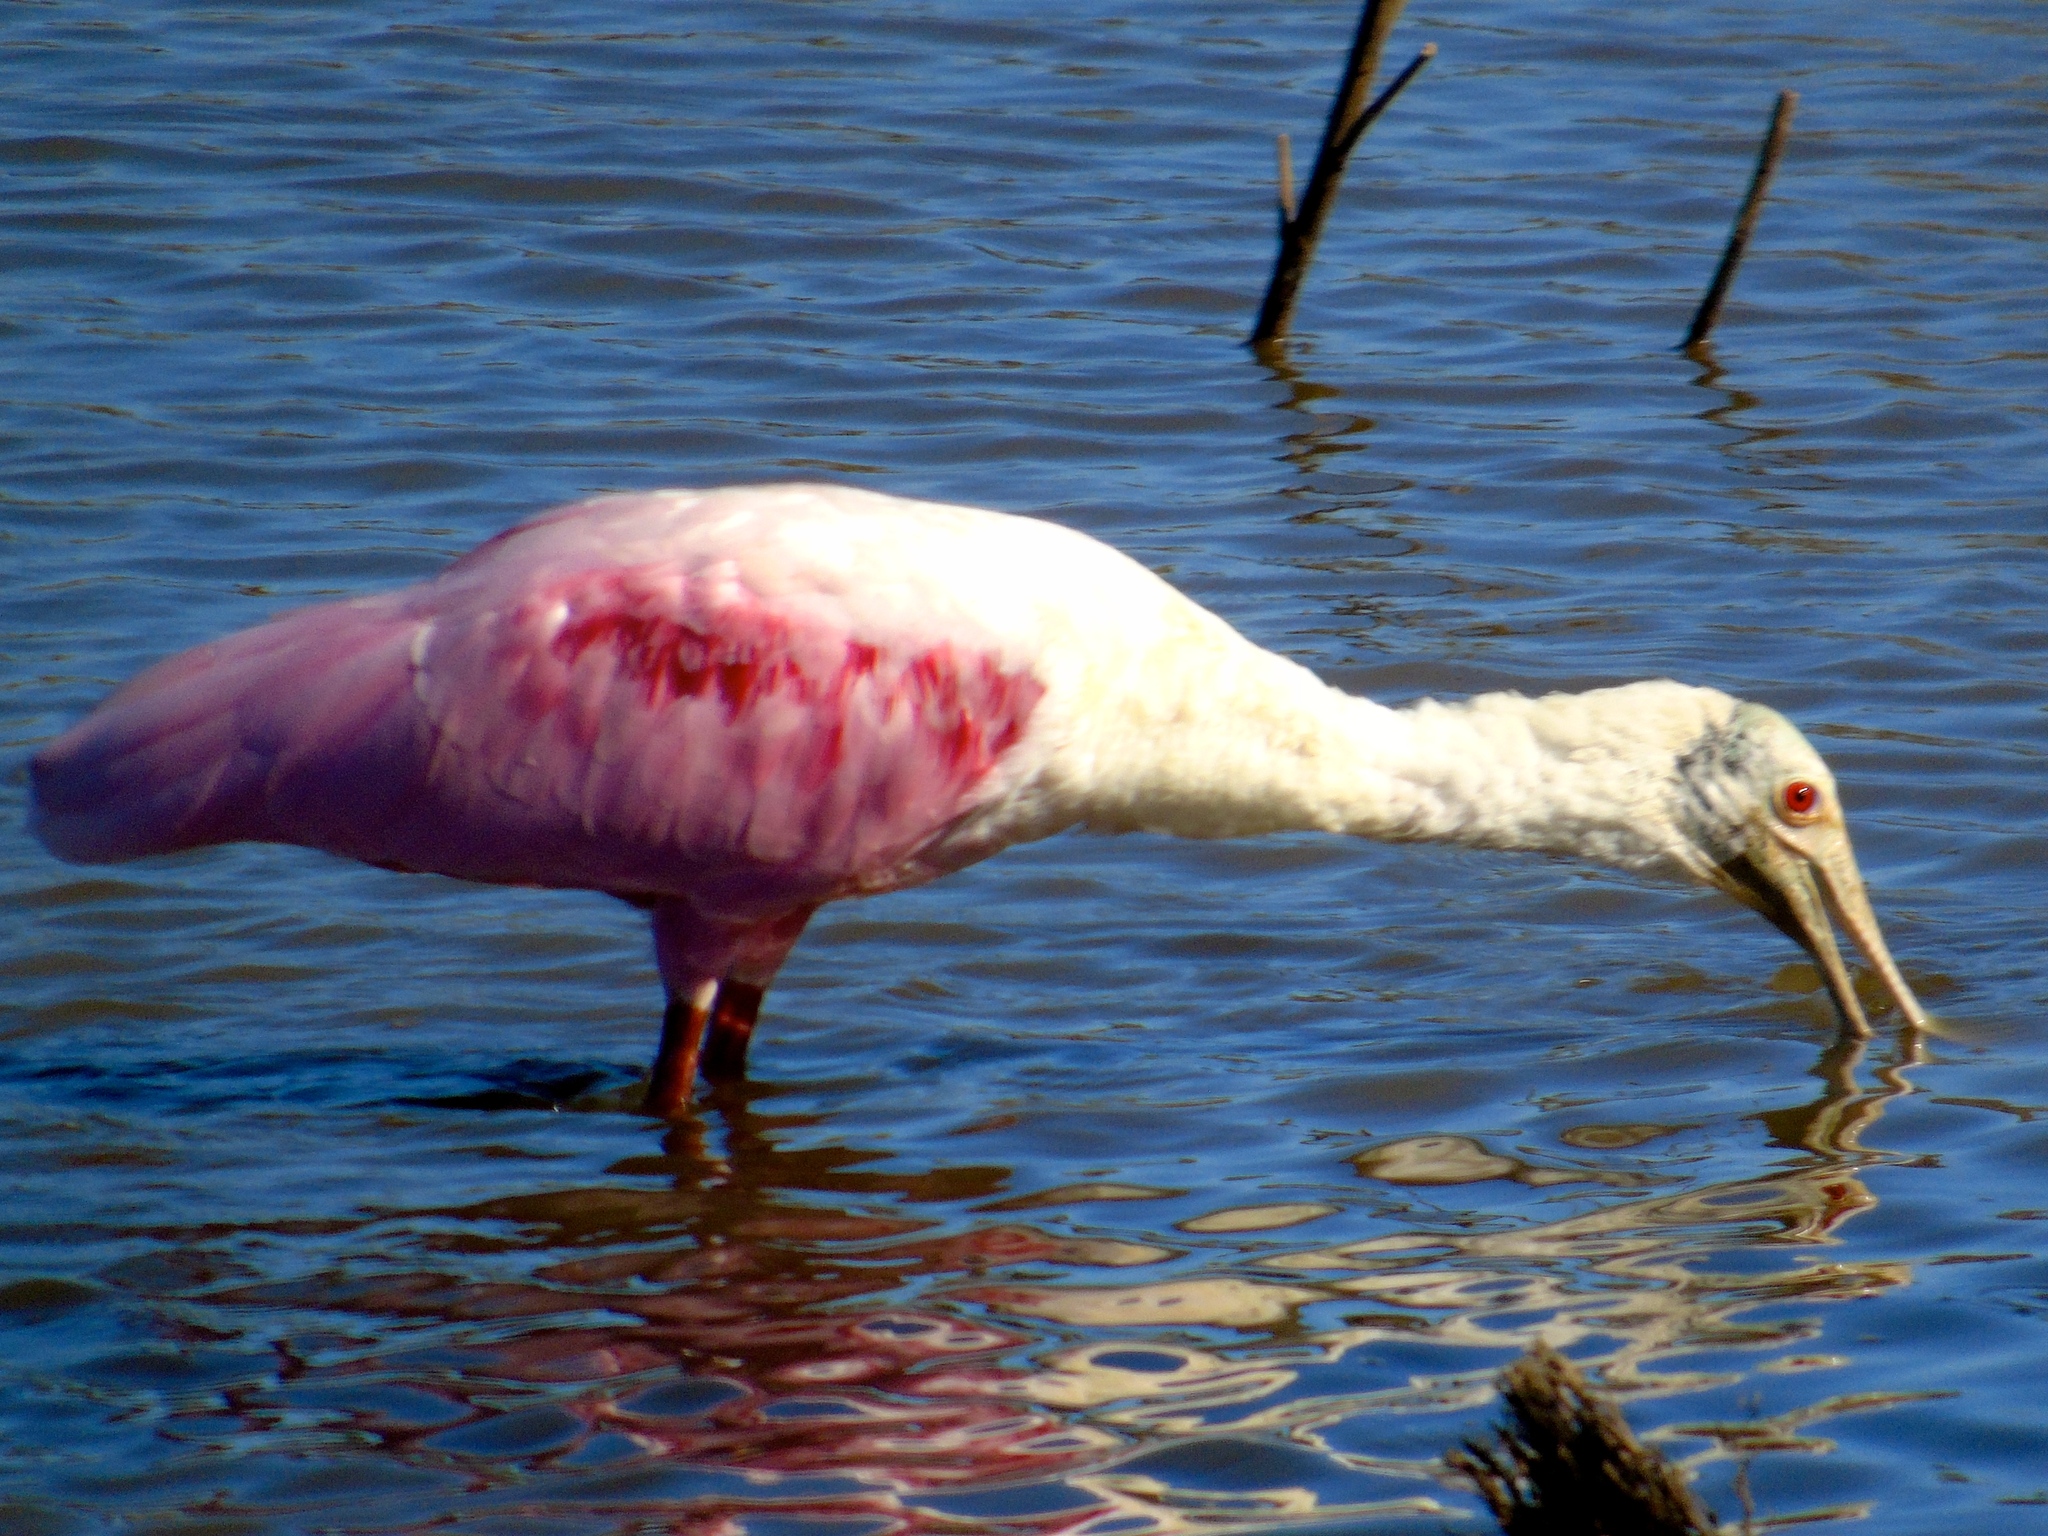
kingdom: Animalia
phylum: Chordata
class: Aves
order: Pelecaniformes
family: Threskiornithidae
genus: Platalea
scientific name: Platalea ajaja
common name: Roseate spoonbill
